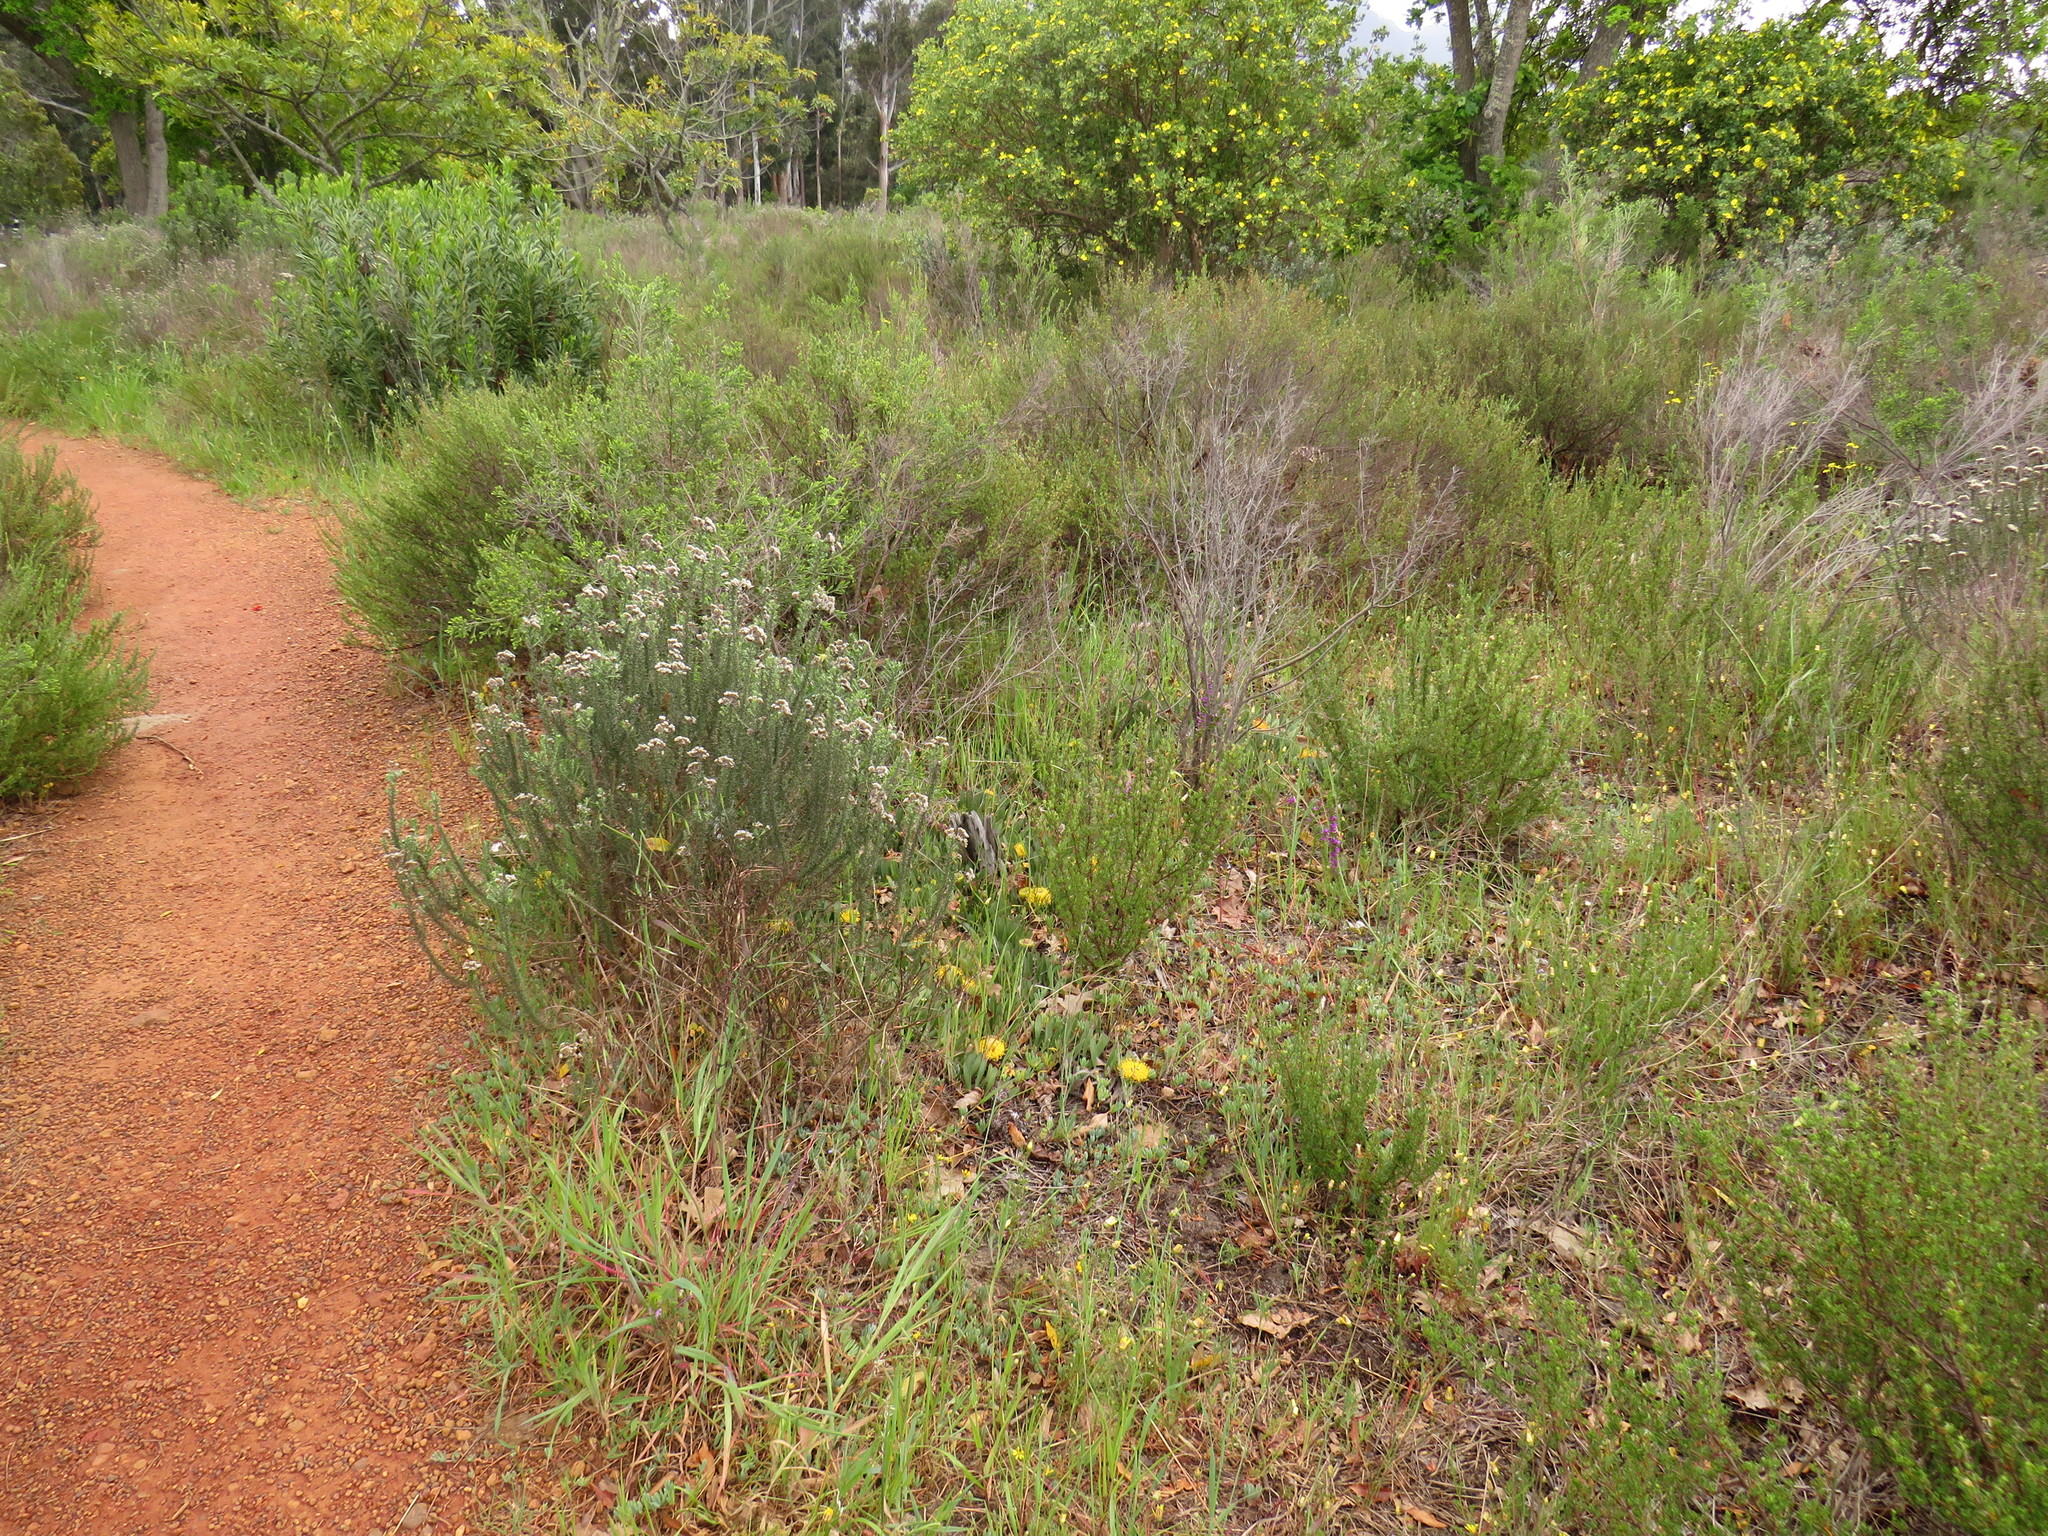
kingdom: Plantae
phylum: Tracheophyta
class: Magnoliopsida
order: Proteales
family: Proteaceae
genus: Leucospermum
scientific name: Leucospermum hypophyllocarpodendron
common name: Snakestem pincushion
